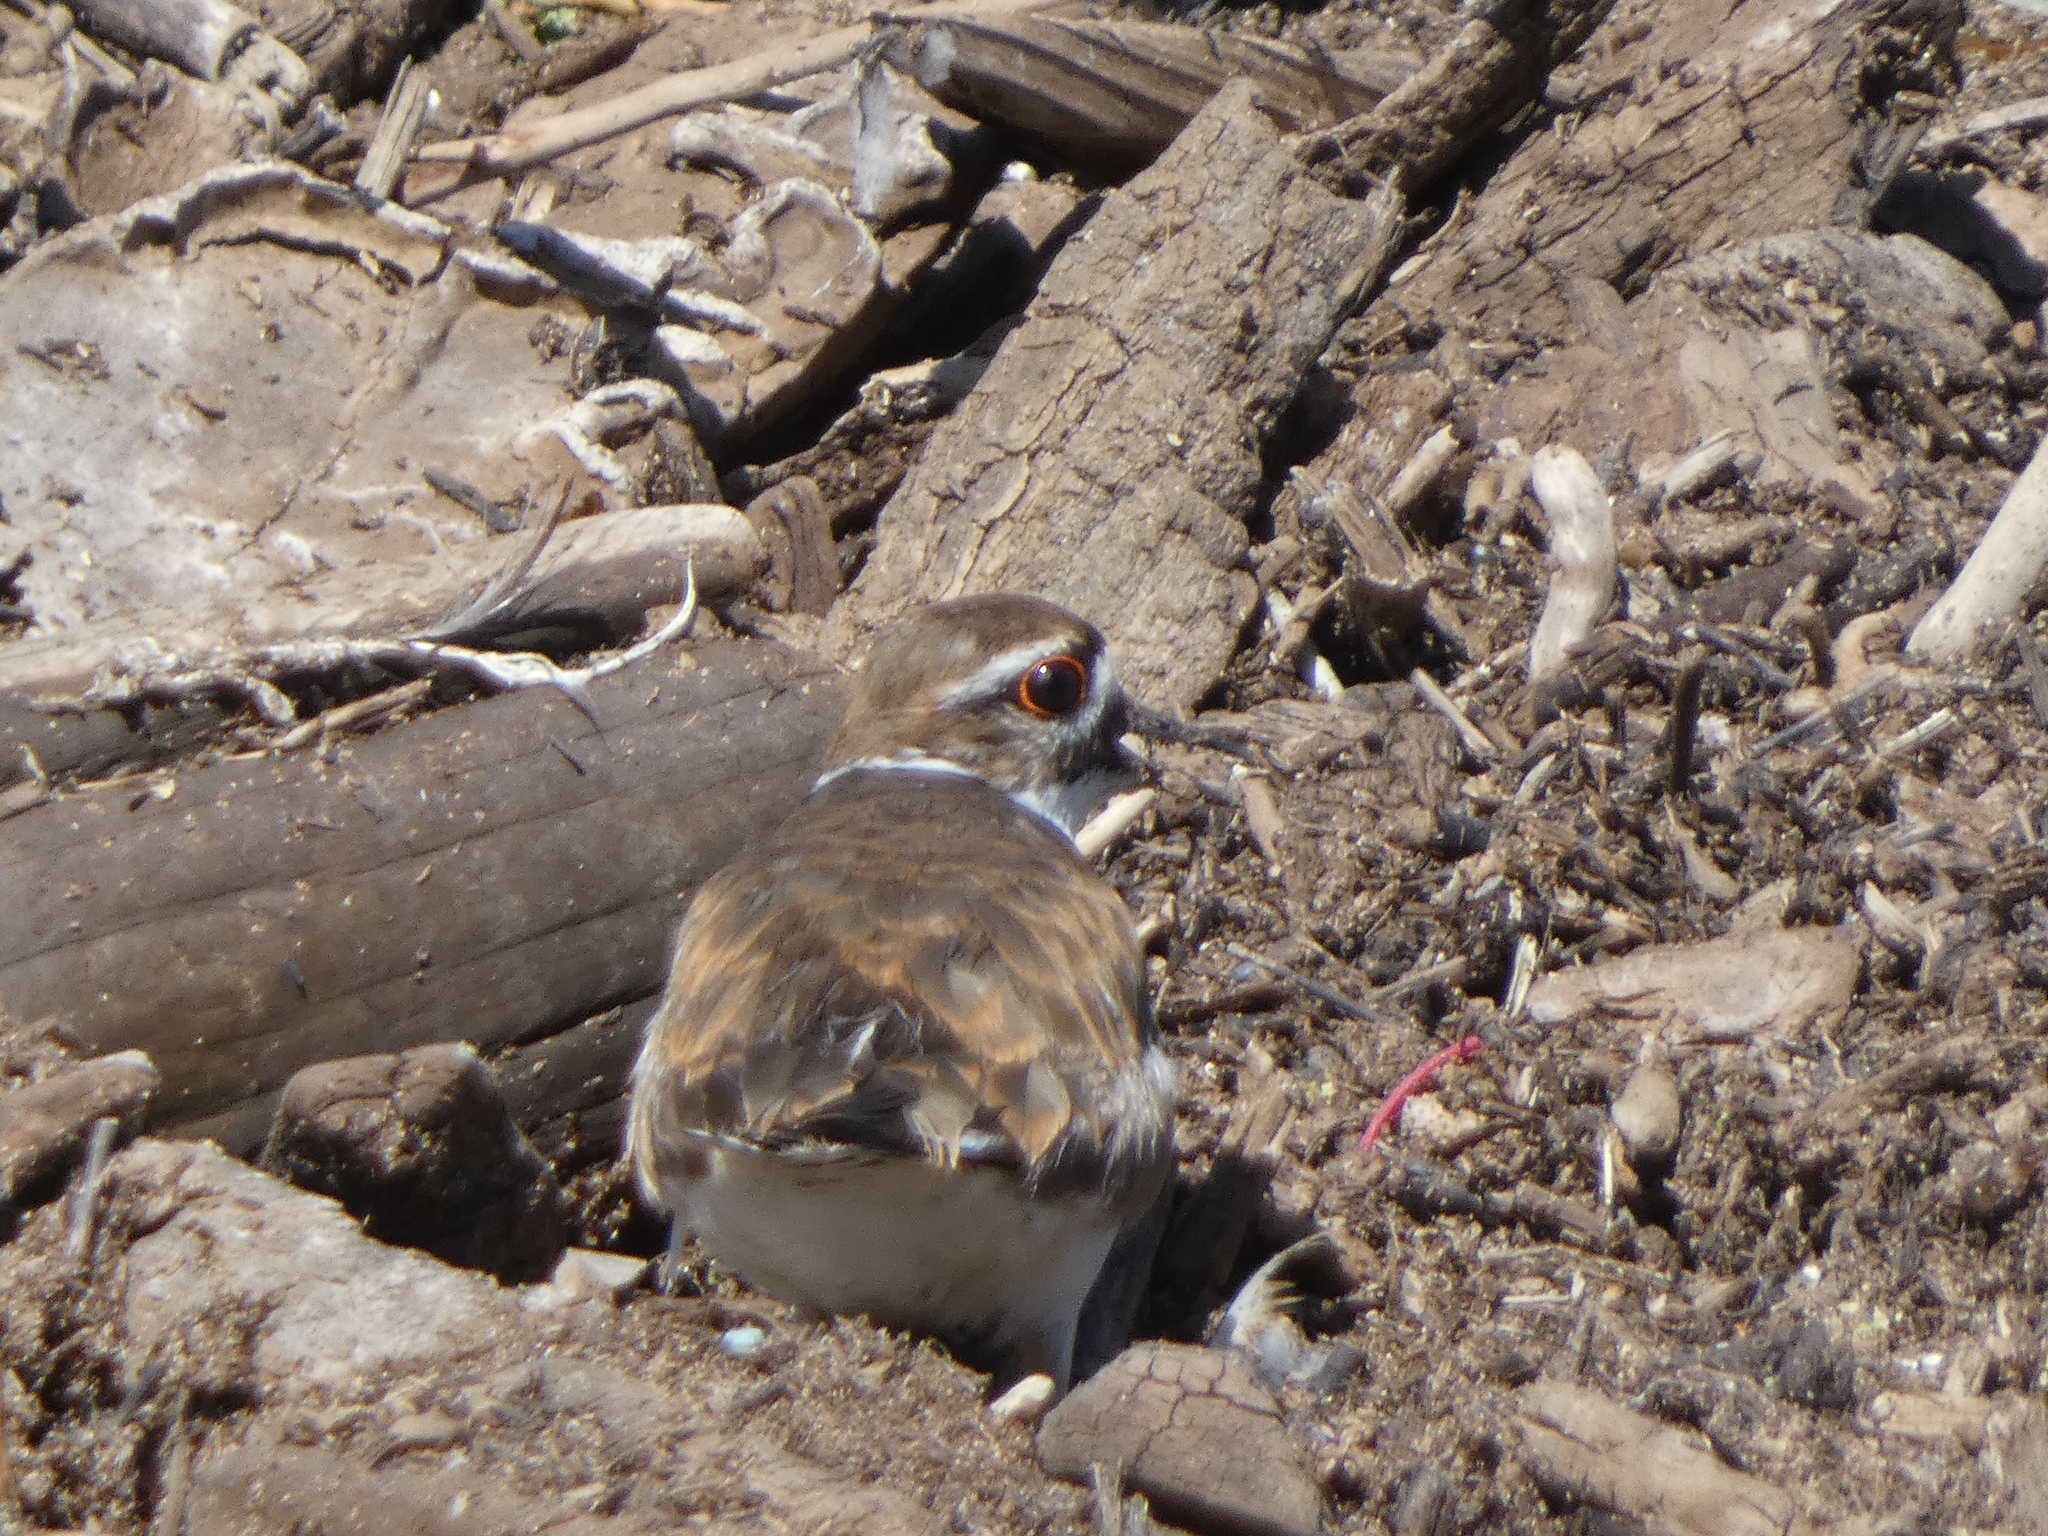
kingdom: Animalia
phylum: Chordata
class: Aves
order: Charadriiformes
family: Charadriidae
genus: Charadrius
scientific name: Charadrius vociferus
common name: Killdeer
